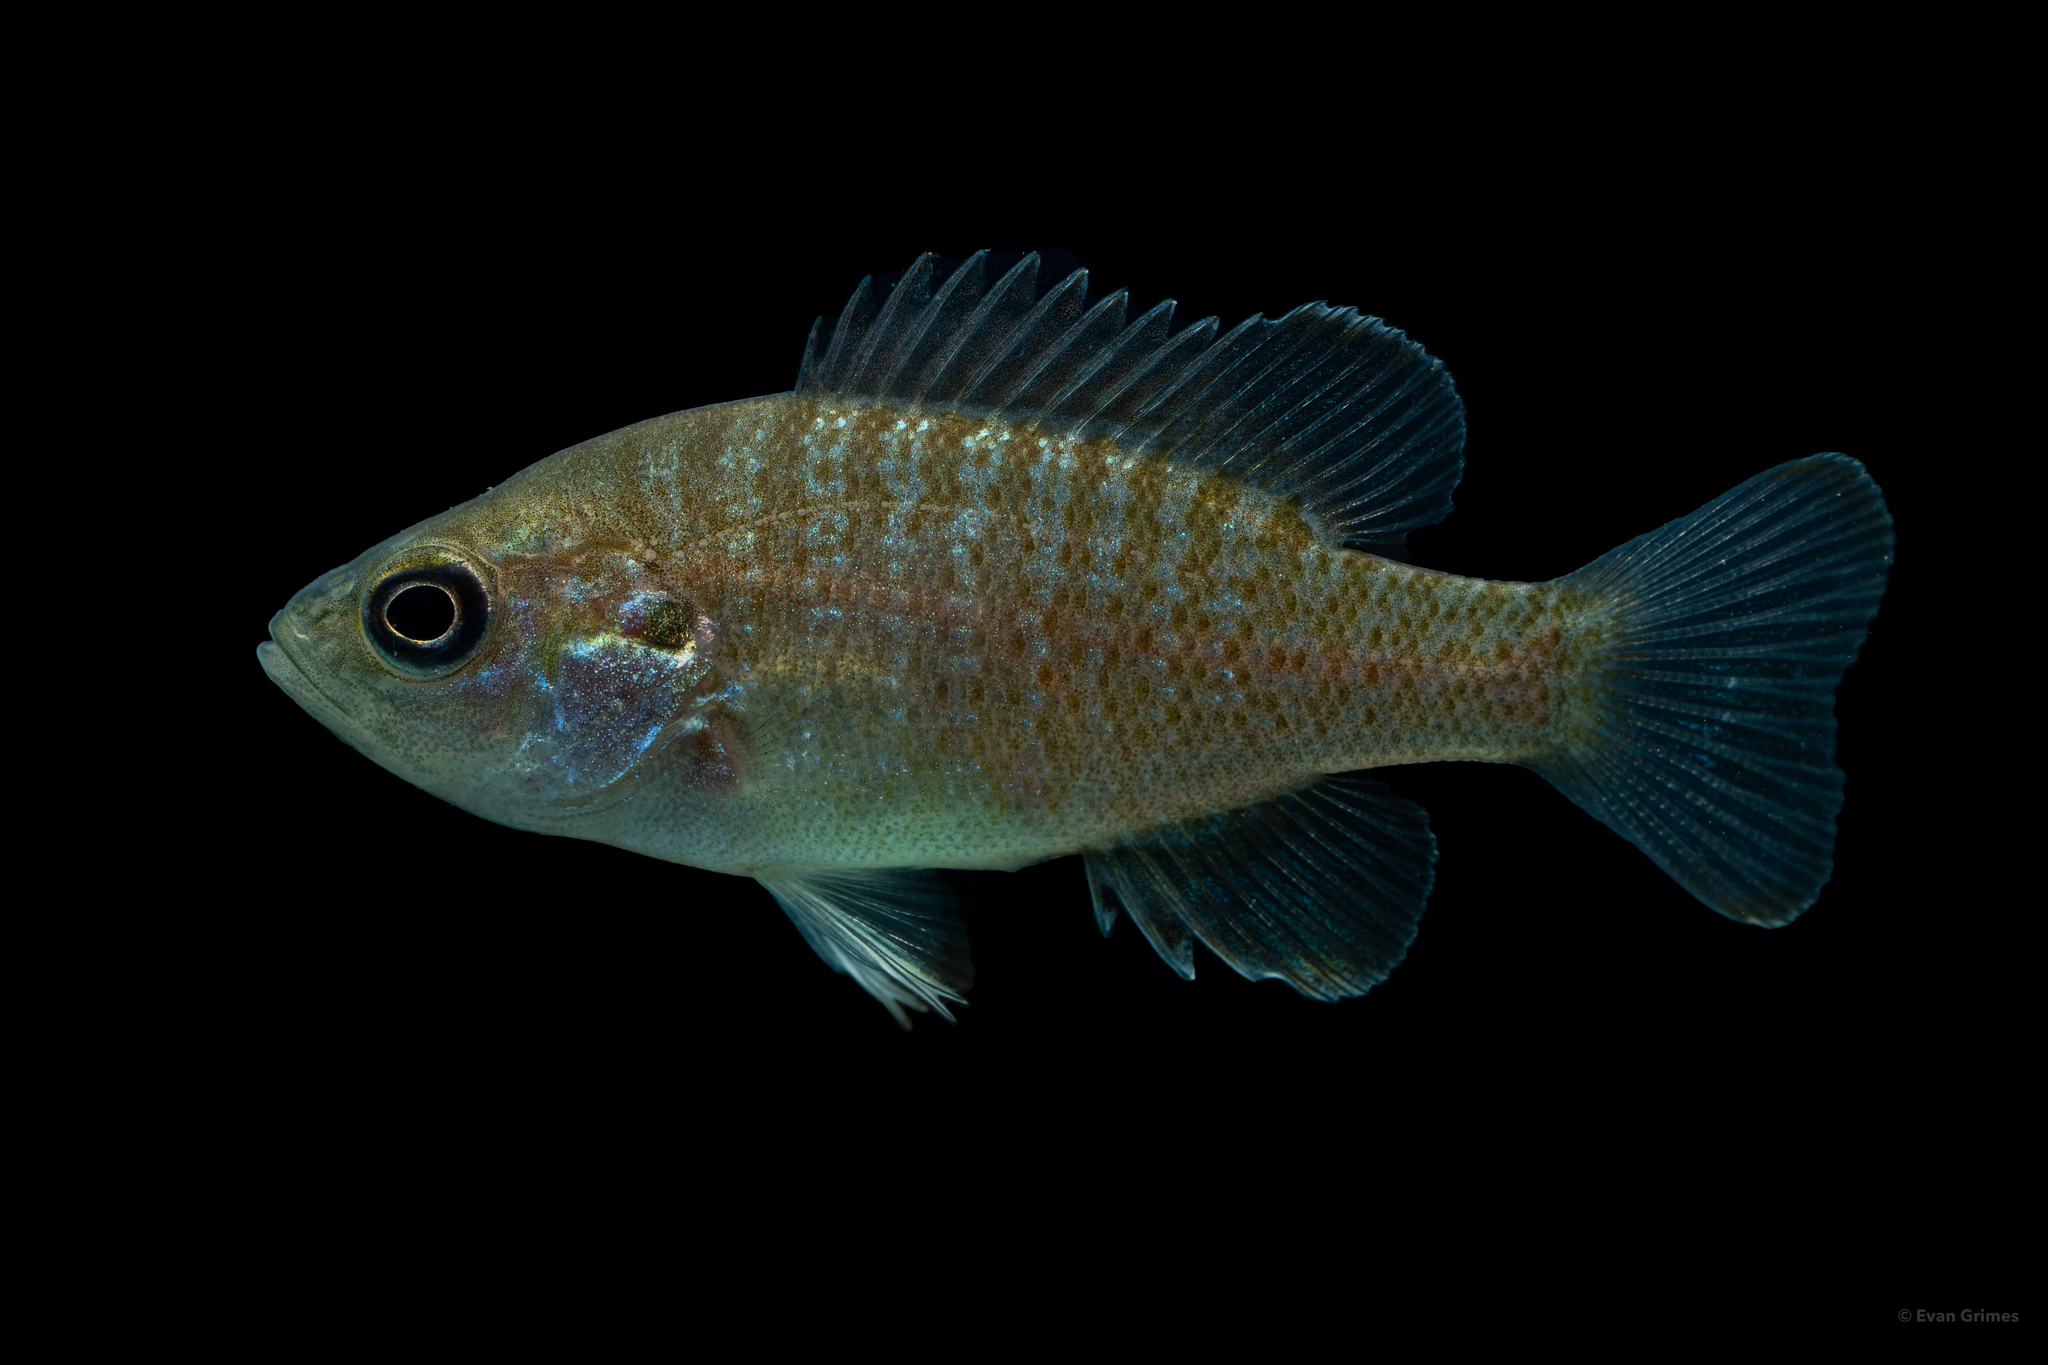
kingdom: Animalia
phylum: Chordata
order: Perciformes
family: Centrarchidae
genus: Lepomis
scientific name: Lepomis cyanellus
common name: Green sunfish
